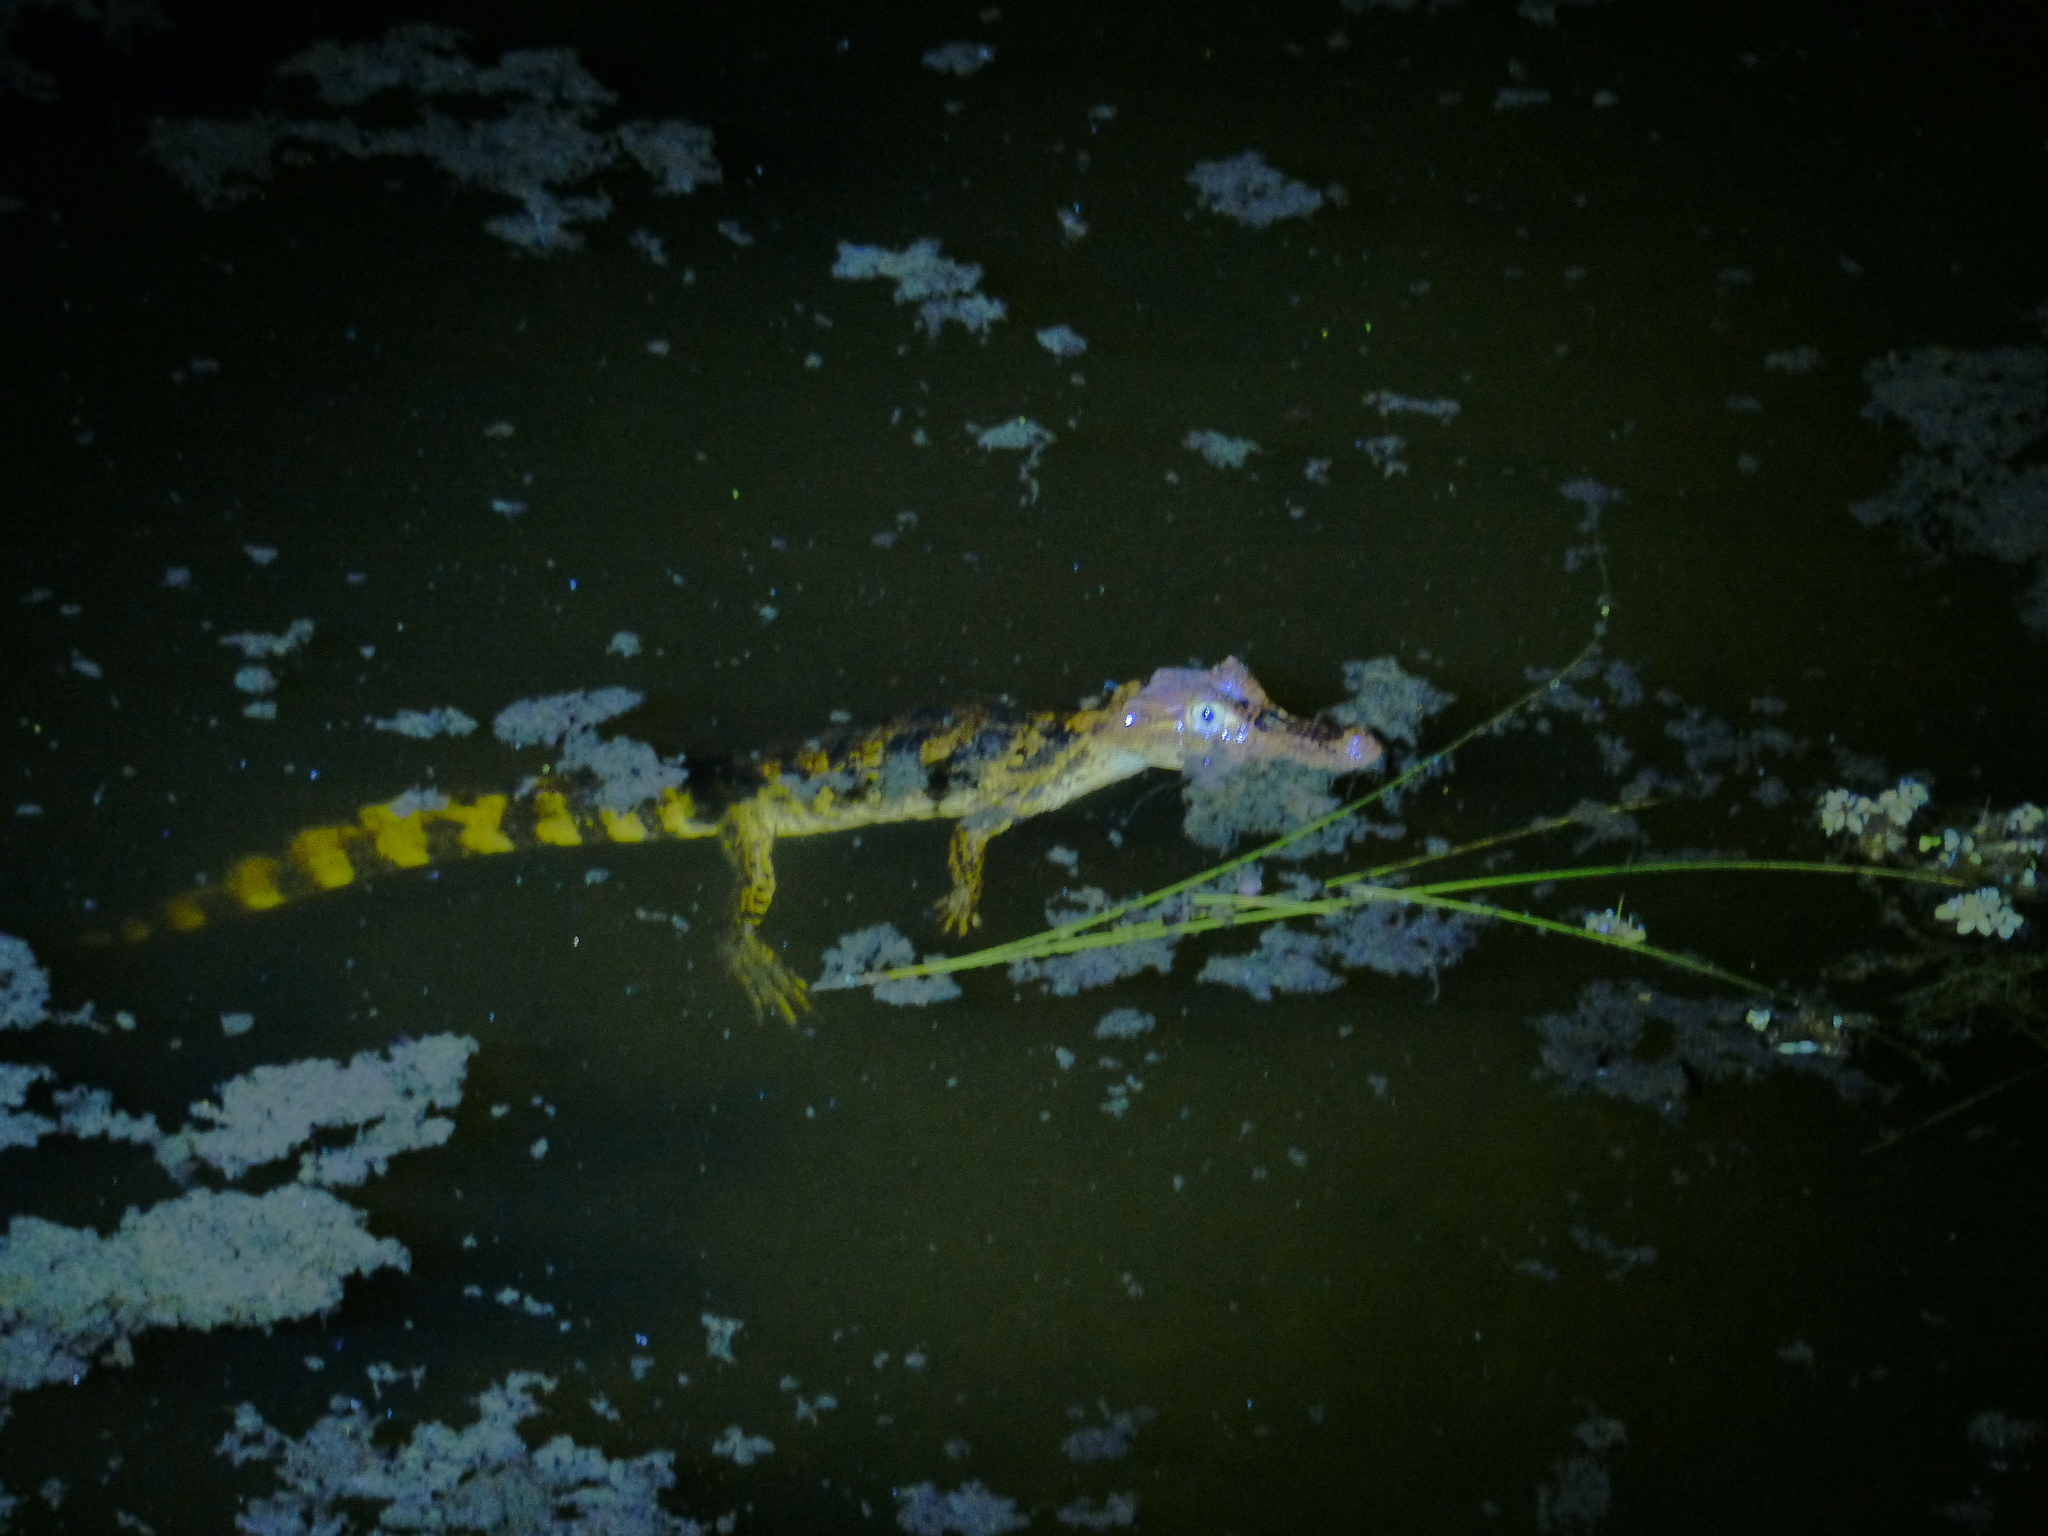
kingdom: Animalia
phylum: Chordata
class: Crocodylia
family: Alligatoridae
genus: Caiman
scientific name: Caiman crocodilus
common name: Common caiman
